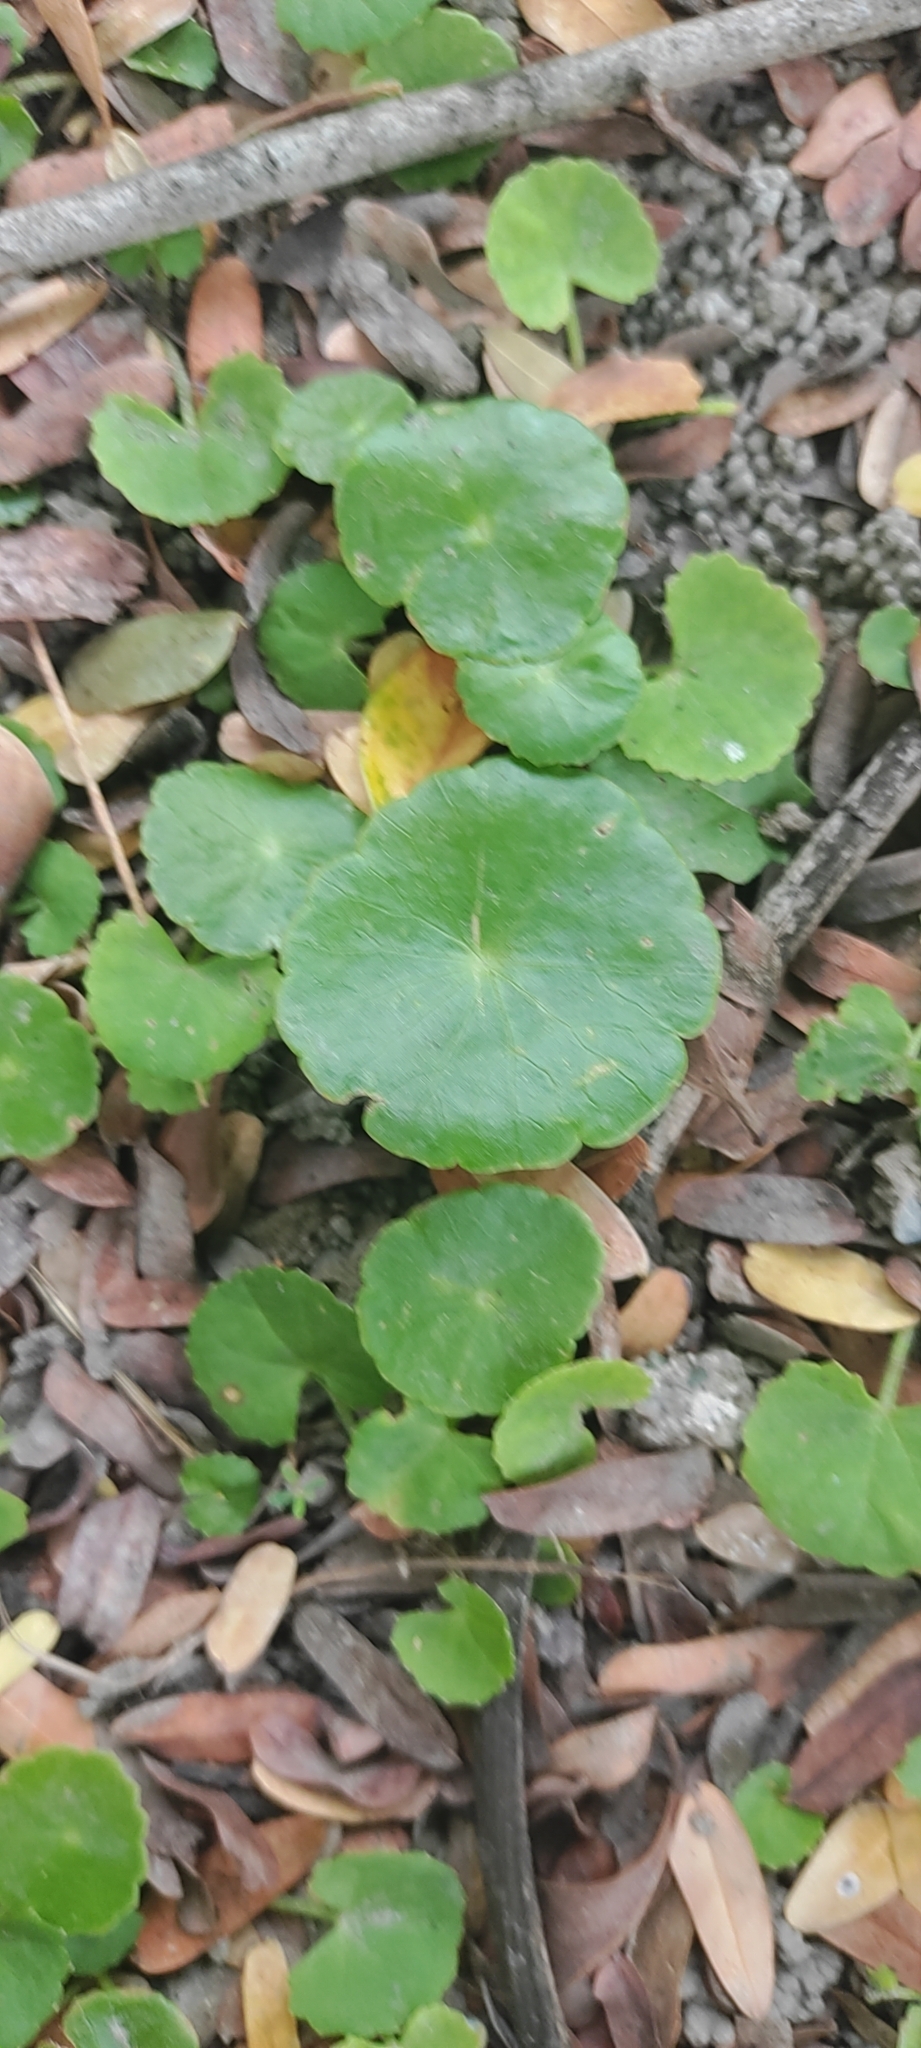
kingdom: Plantae
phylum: Tracheophyta
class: Magnoliopsida
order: Apiales
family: Araliaceae
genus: Hydrocotyle
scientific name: Hydrocotyle verticillata
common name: Whorled marshpennywort
